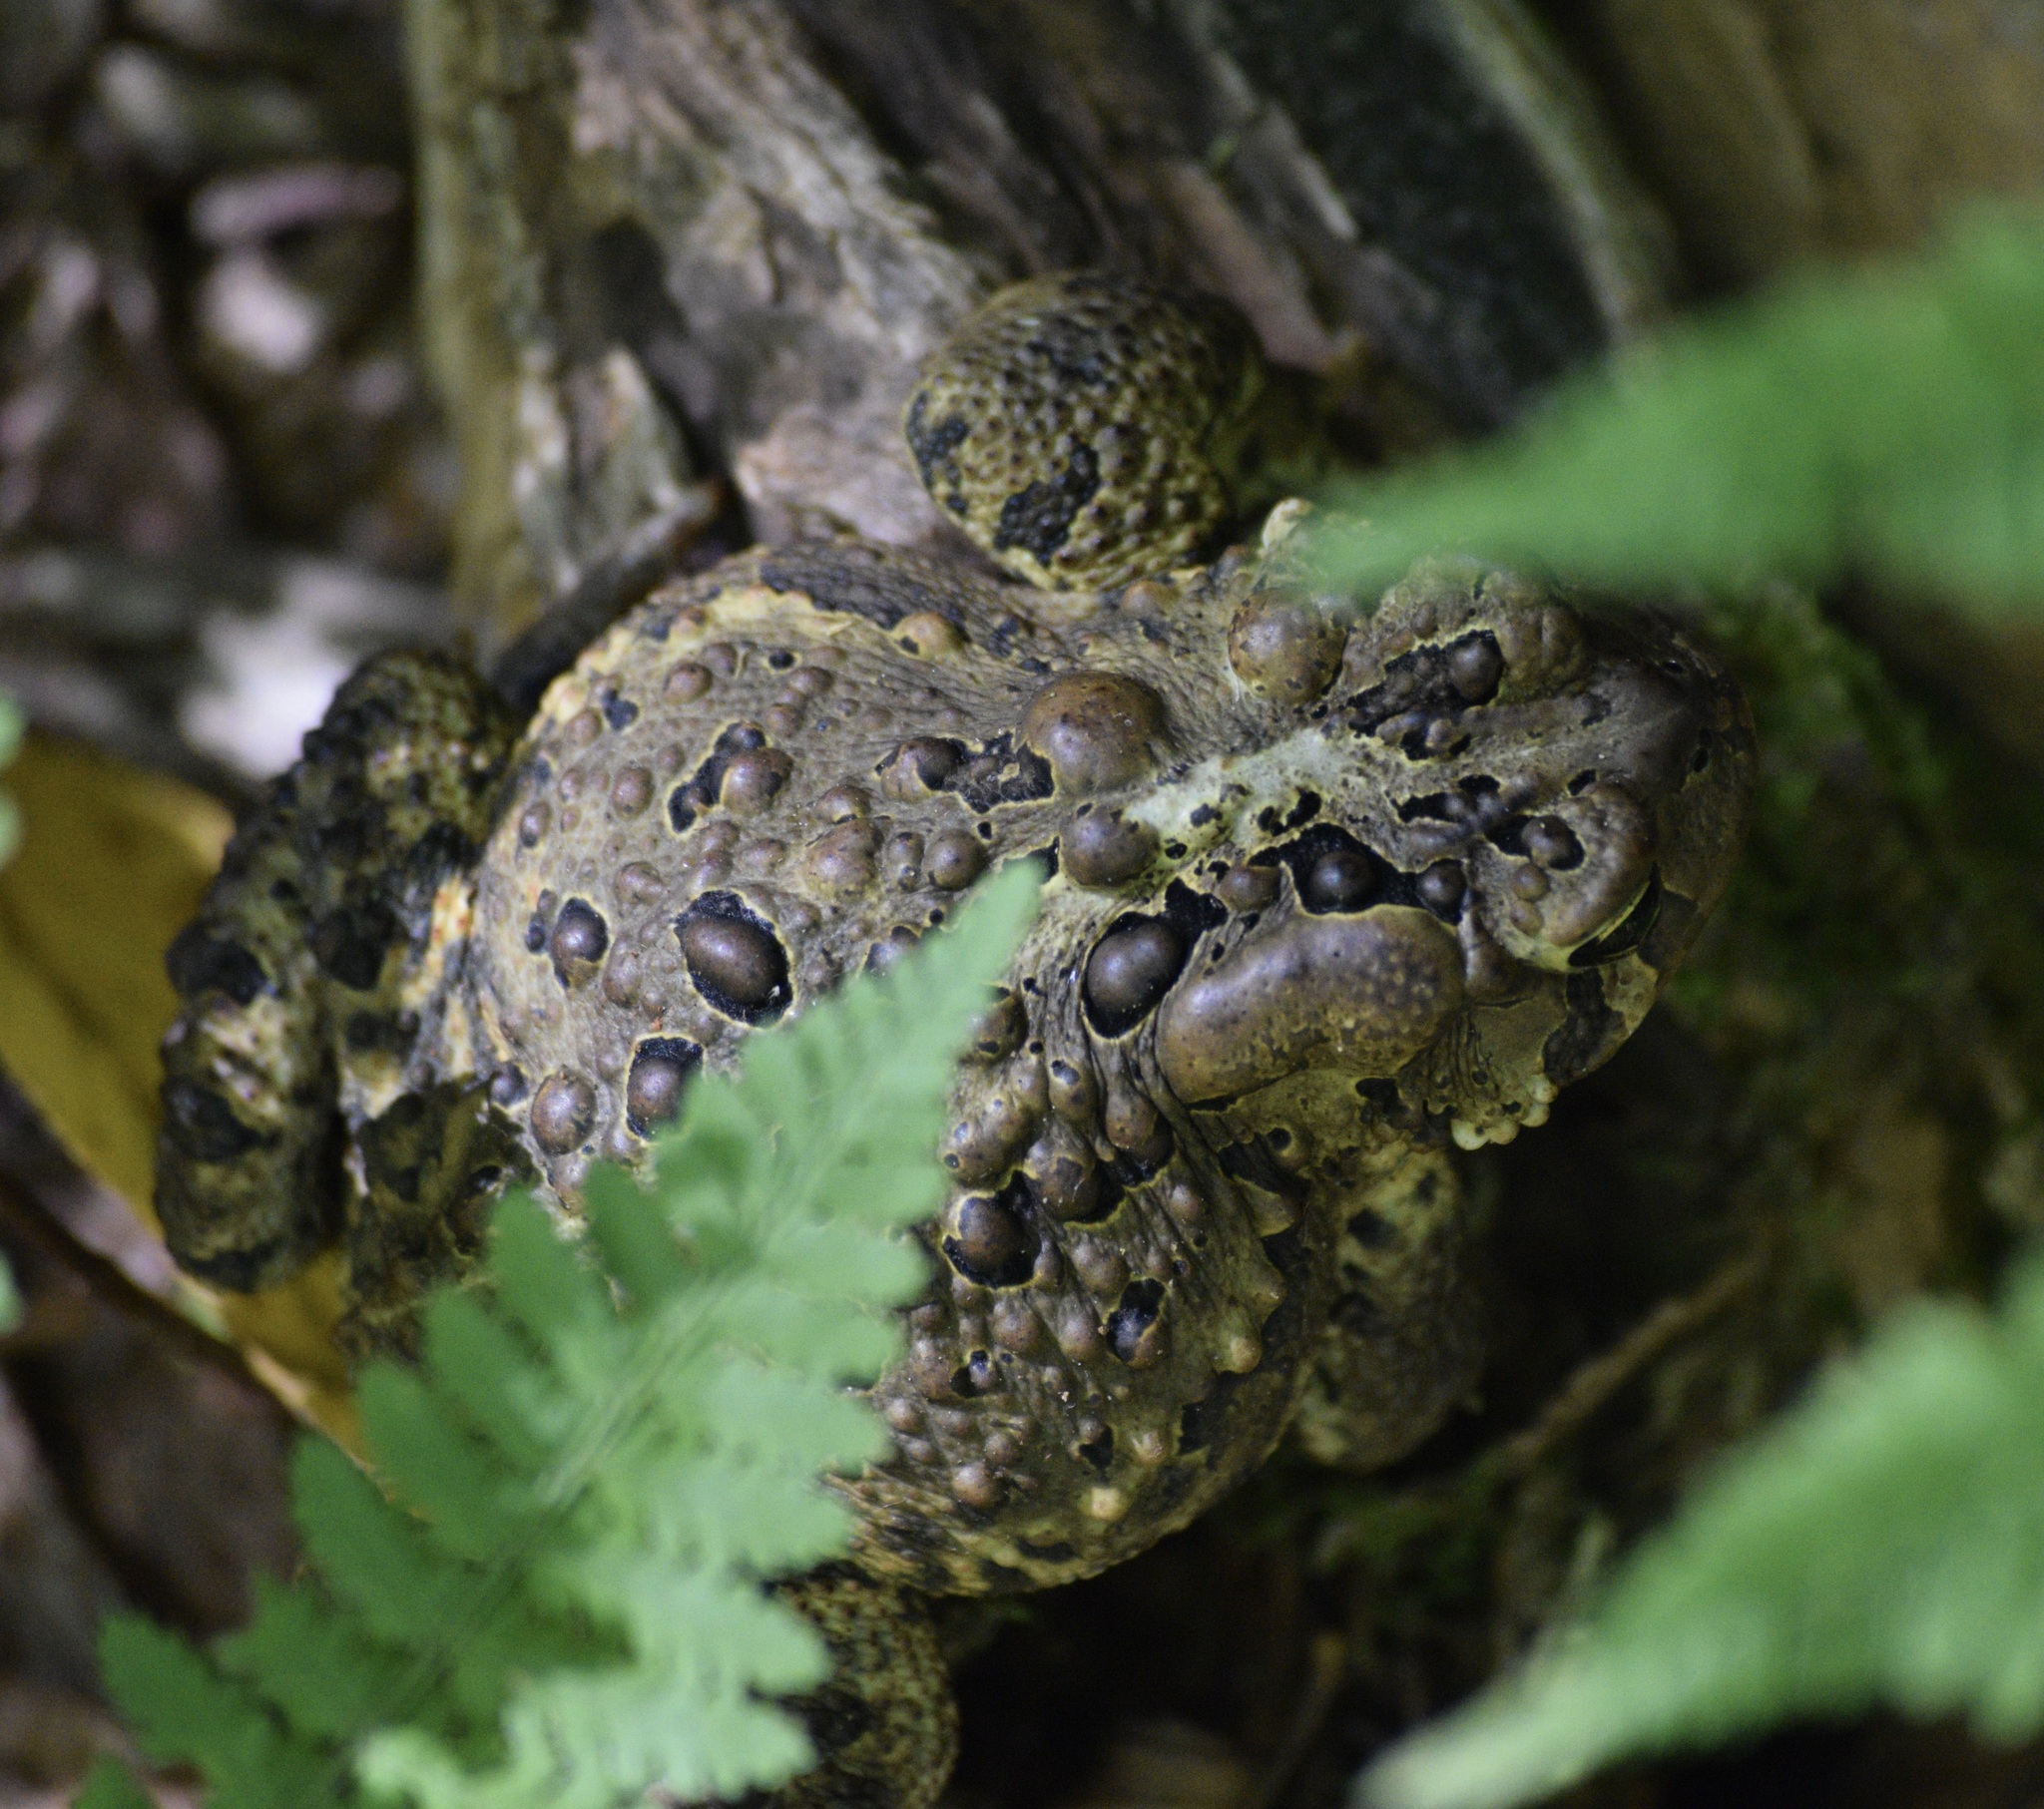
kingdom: Animalia
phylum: Chordata
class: Amphibia
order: Anura
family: Bufonidae
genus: Anaxyrus
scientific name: Anaxyrus americanus
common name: American toad
